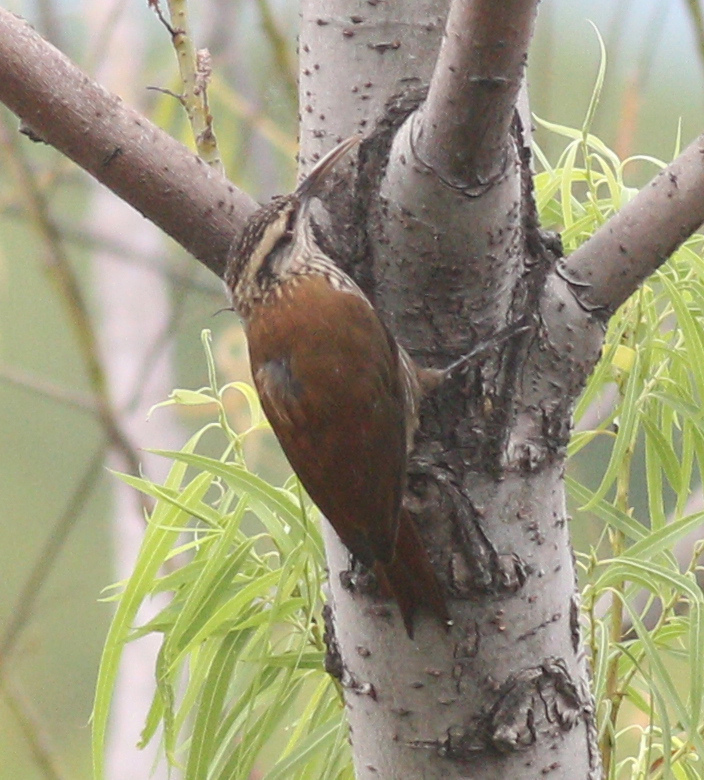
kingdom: Animalia
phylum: Chordata
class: Aves
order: Passeriformes
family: Furnariidae
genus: Lepidocolaptes
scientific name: Lepidocolaptes angustirostris
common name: Narrow-billed woodcreeper
